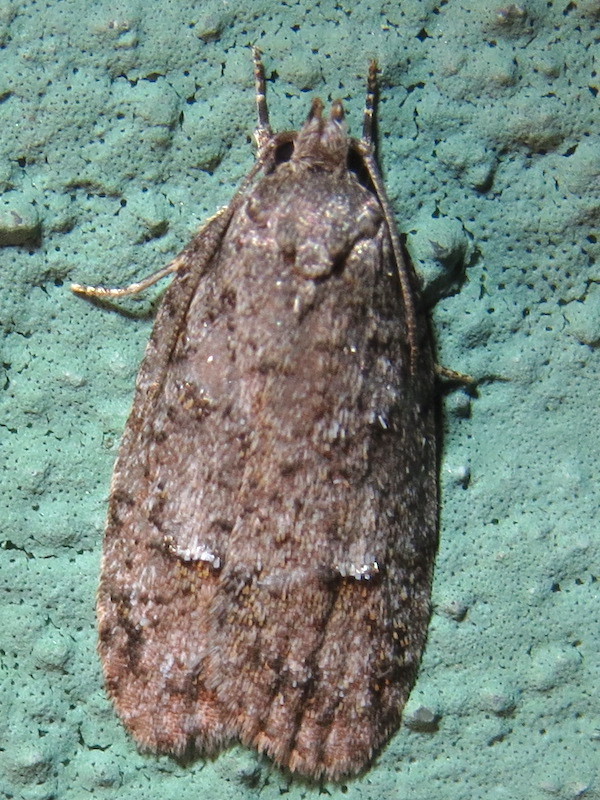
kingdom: Animalia
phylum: Arthropoda
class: Insecta
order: Lepidoptera
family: Depressariidae
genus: Bibarrambla
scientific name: Bibarrambla allenella
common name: Bog bibarrambla moth
